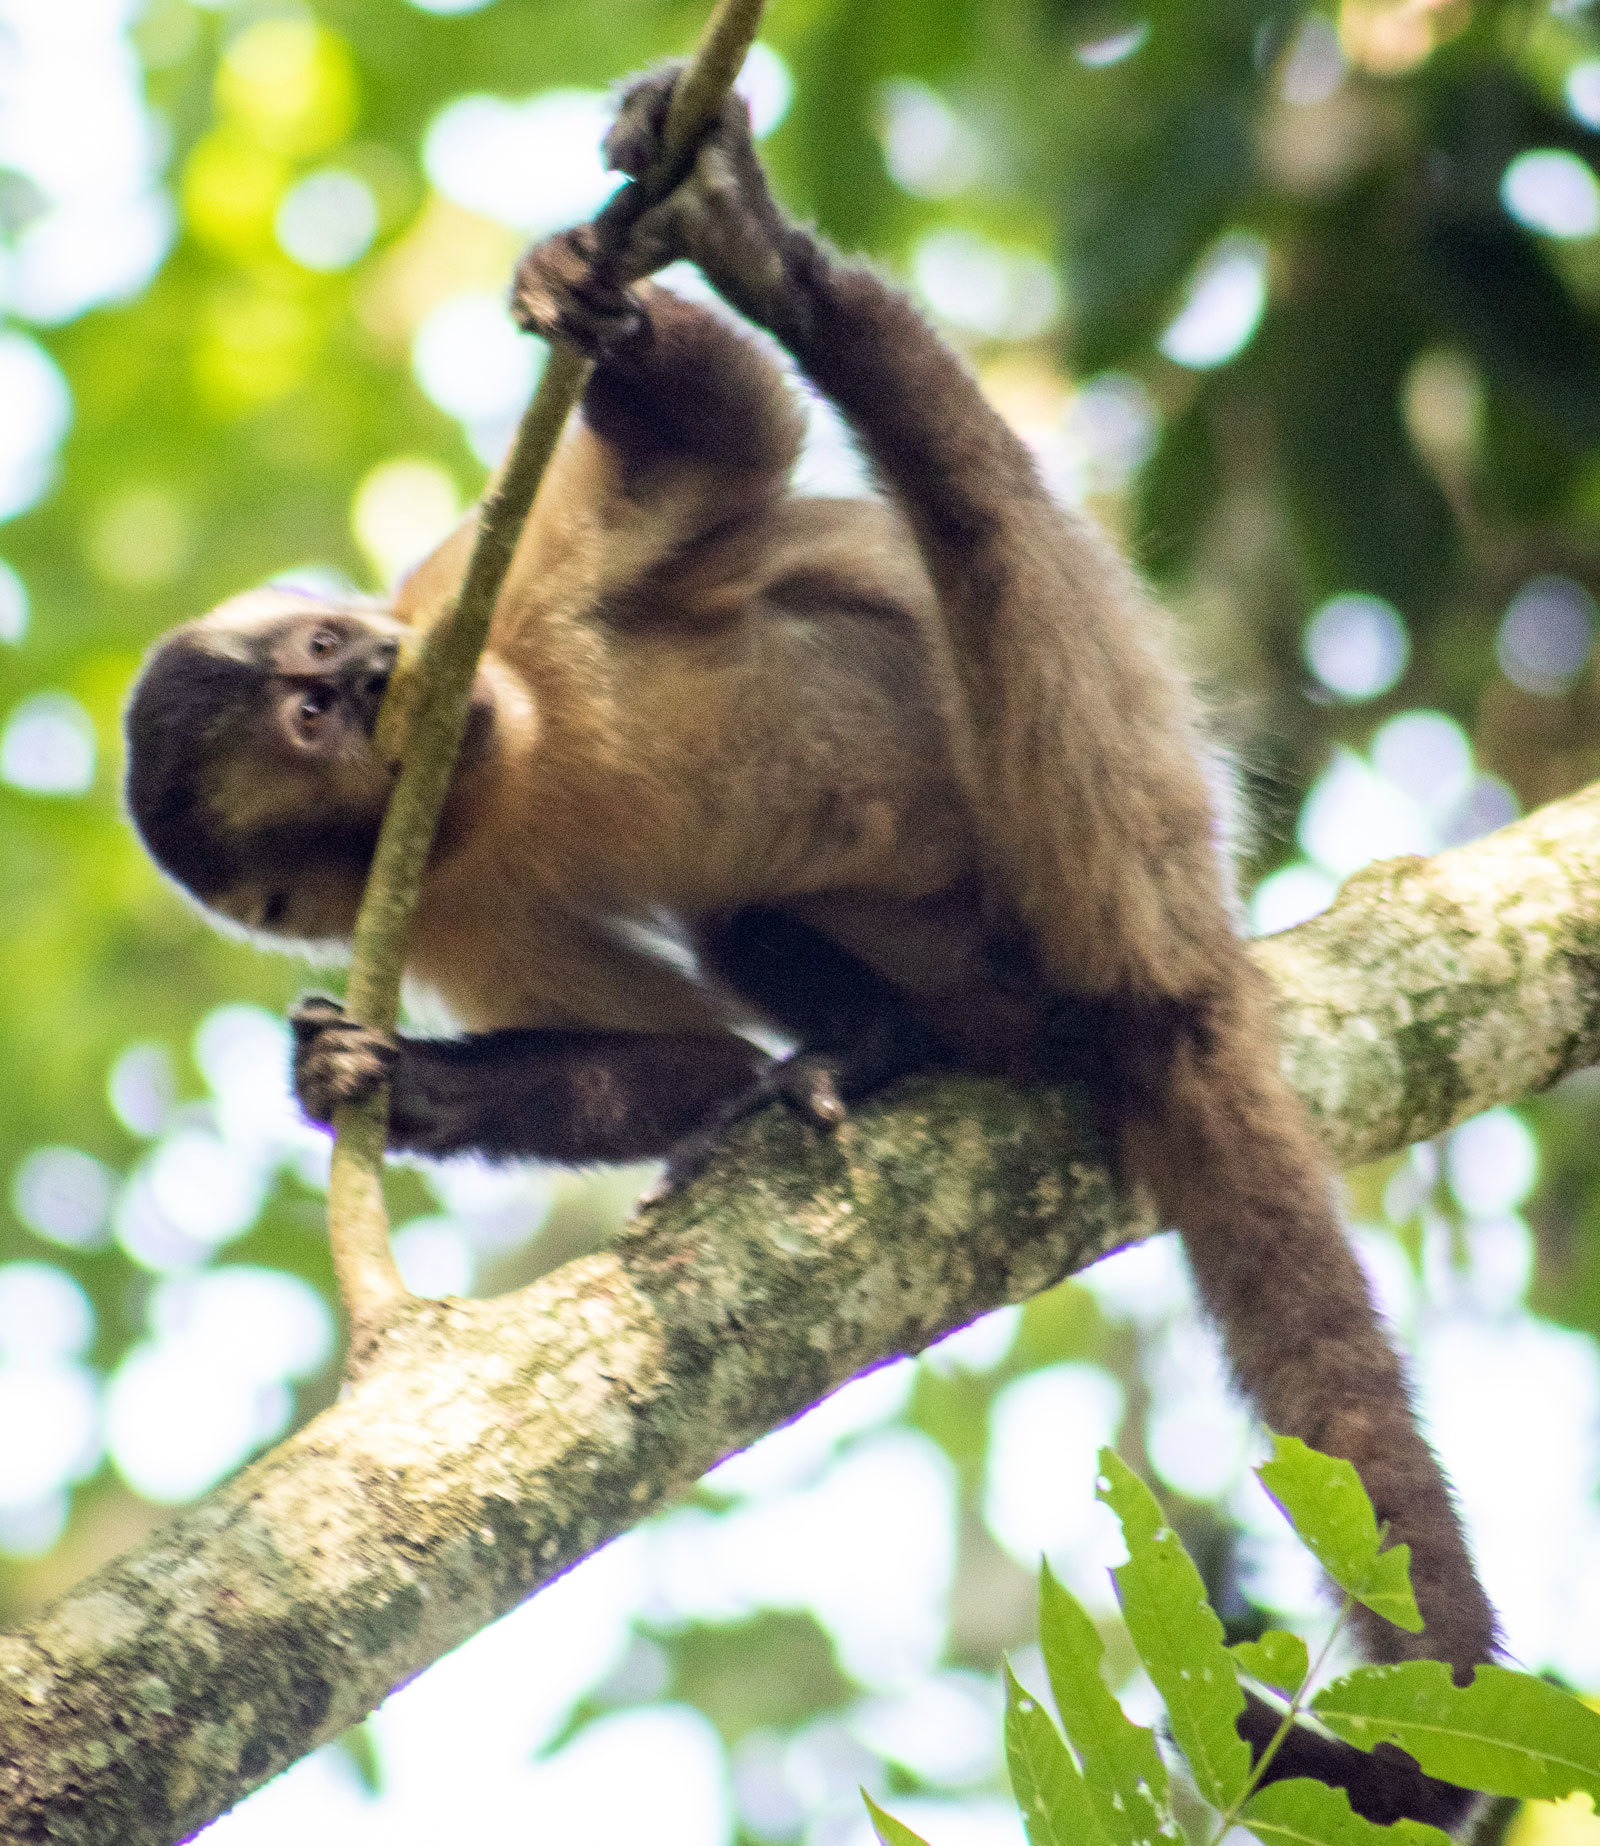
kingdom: Animalia
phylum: Chordata
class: Mammalia
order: Primates
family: Cebidae
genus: Sapajus
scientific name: Sapajus nigritus
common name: Black capuchin
